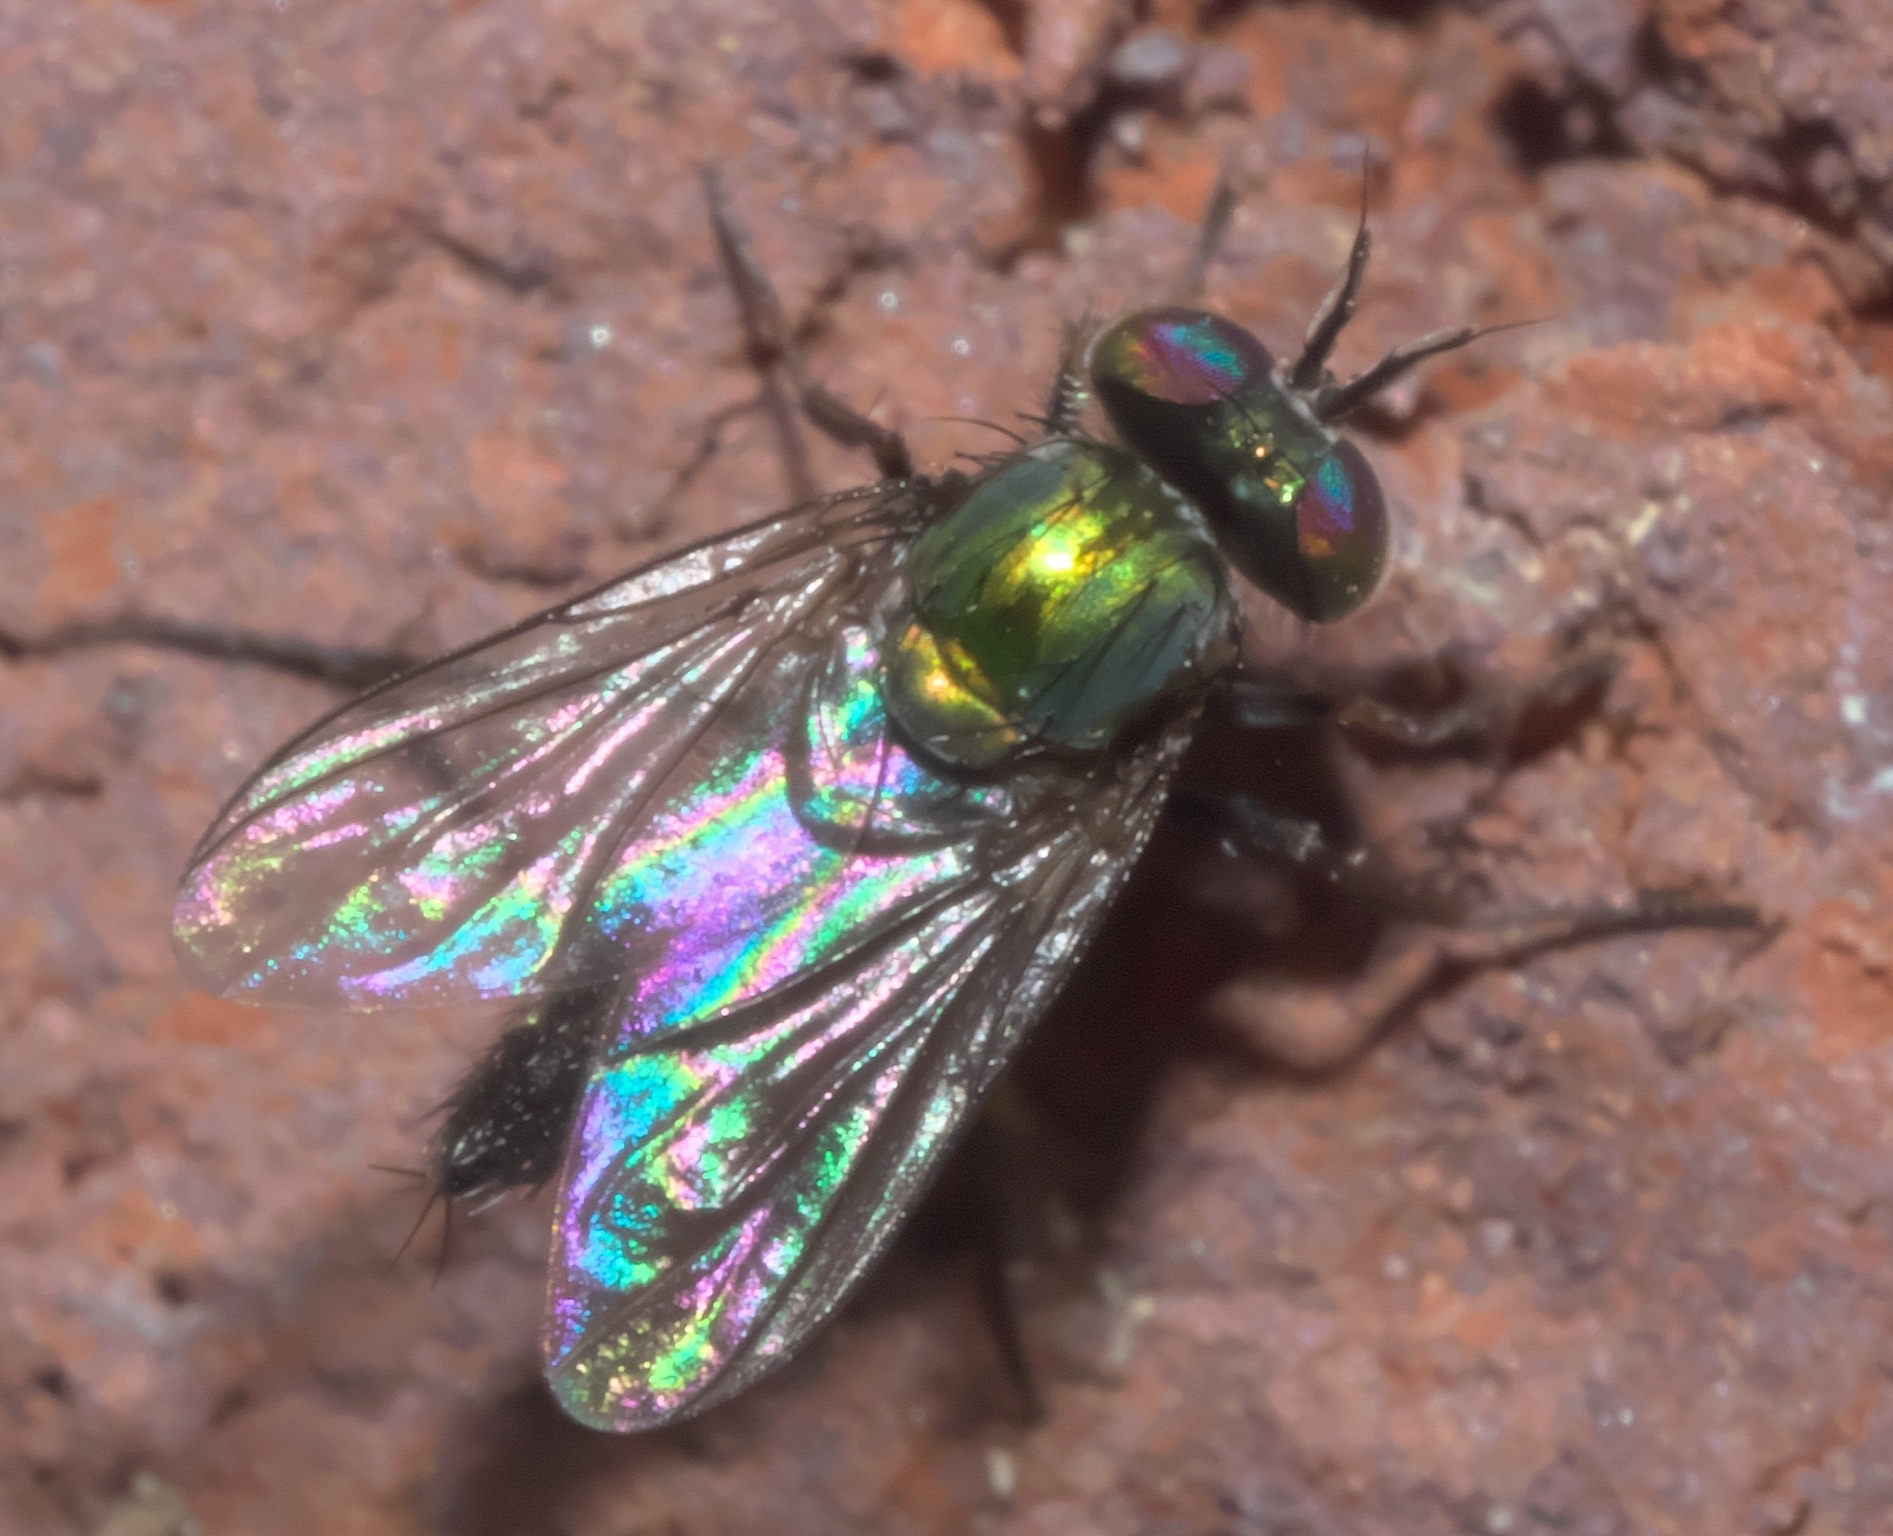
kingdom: Animalia
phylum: Arthropoda
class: Insecta
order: Diptera
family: Dolichopodidae
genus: Asyndetus
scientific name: Asyndetus syntormoides
